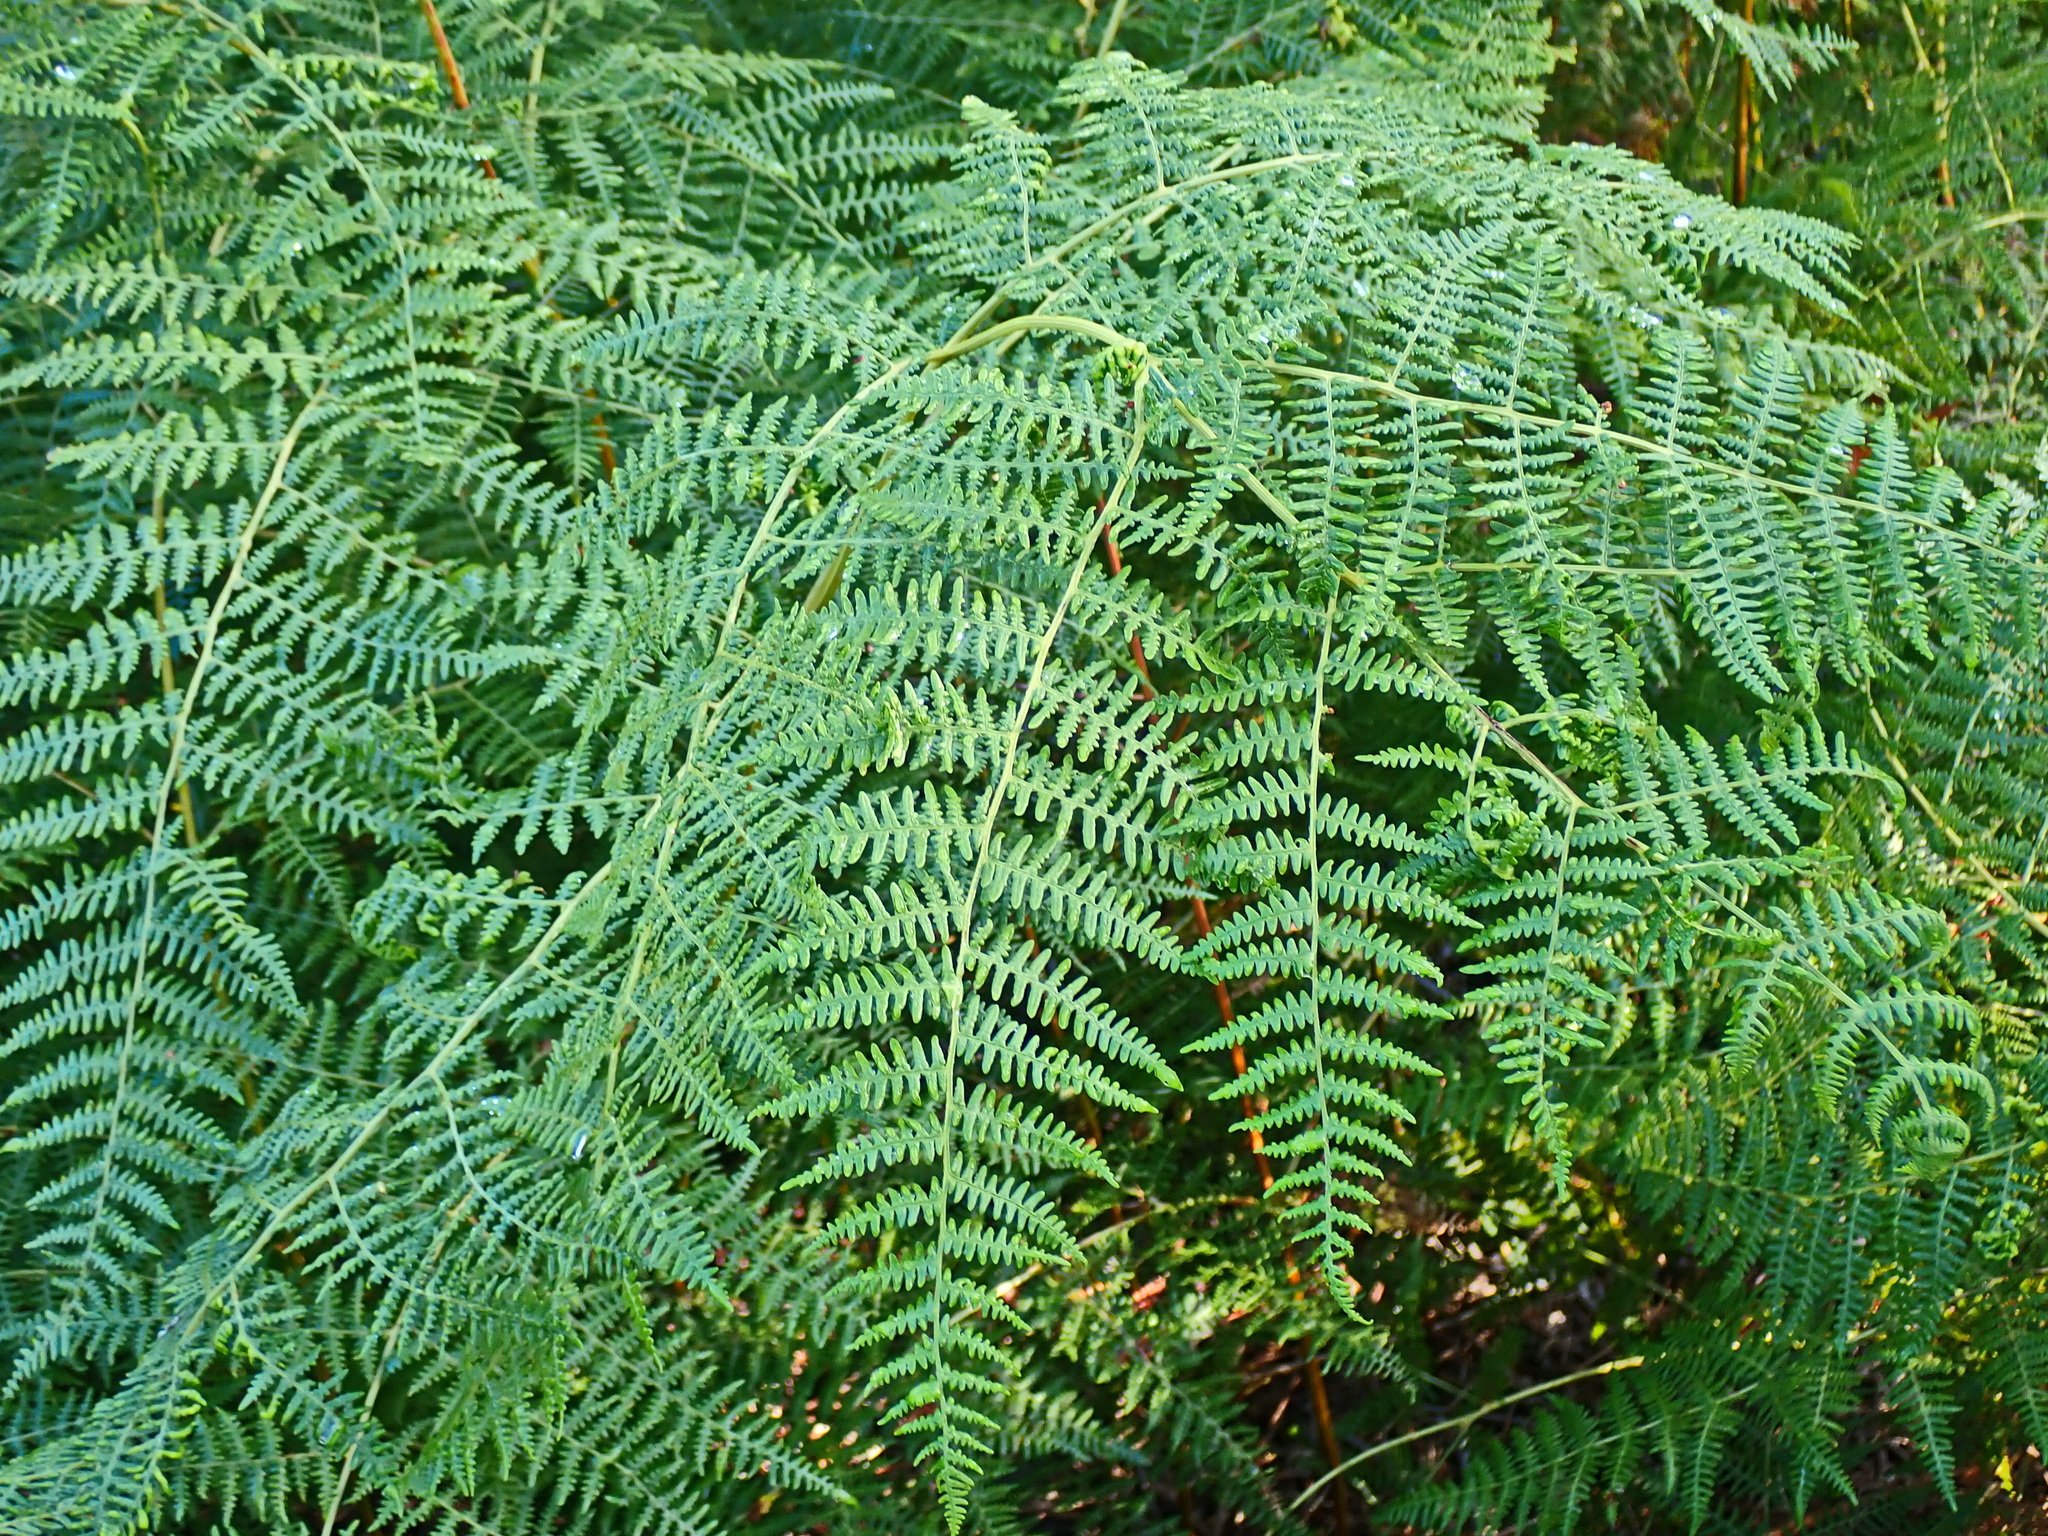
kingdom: Plantae
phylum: Tracheophyta
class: Polypodiopsida
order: Polypodiales
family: Dennstaedtiaceae
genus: Pteridium
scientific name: Pteridium aquilinum
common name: Bracken
